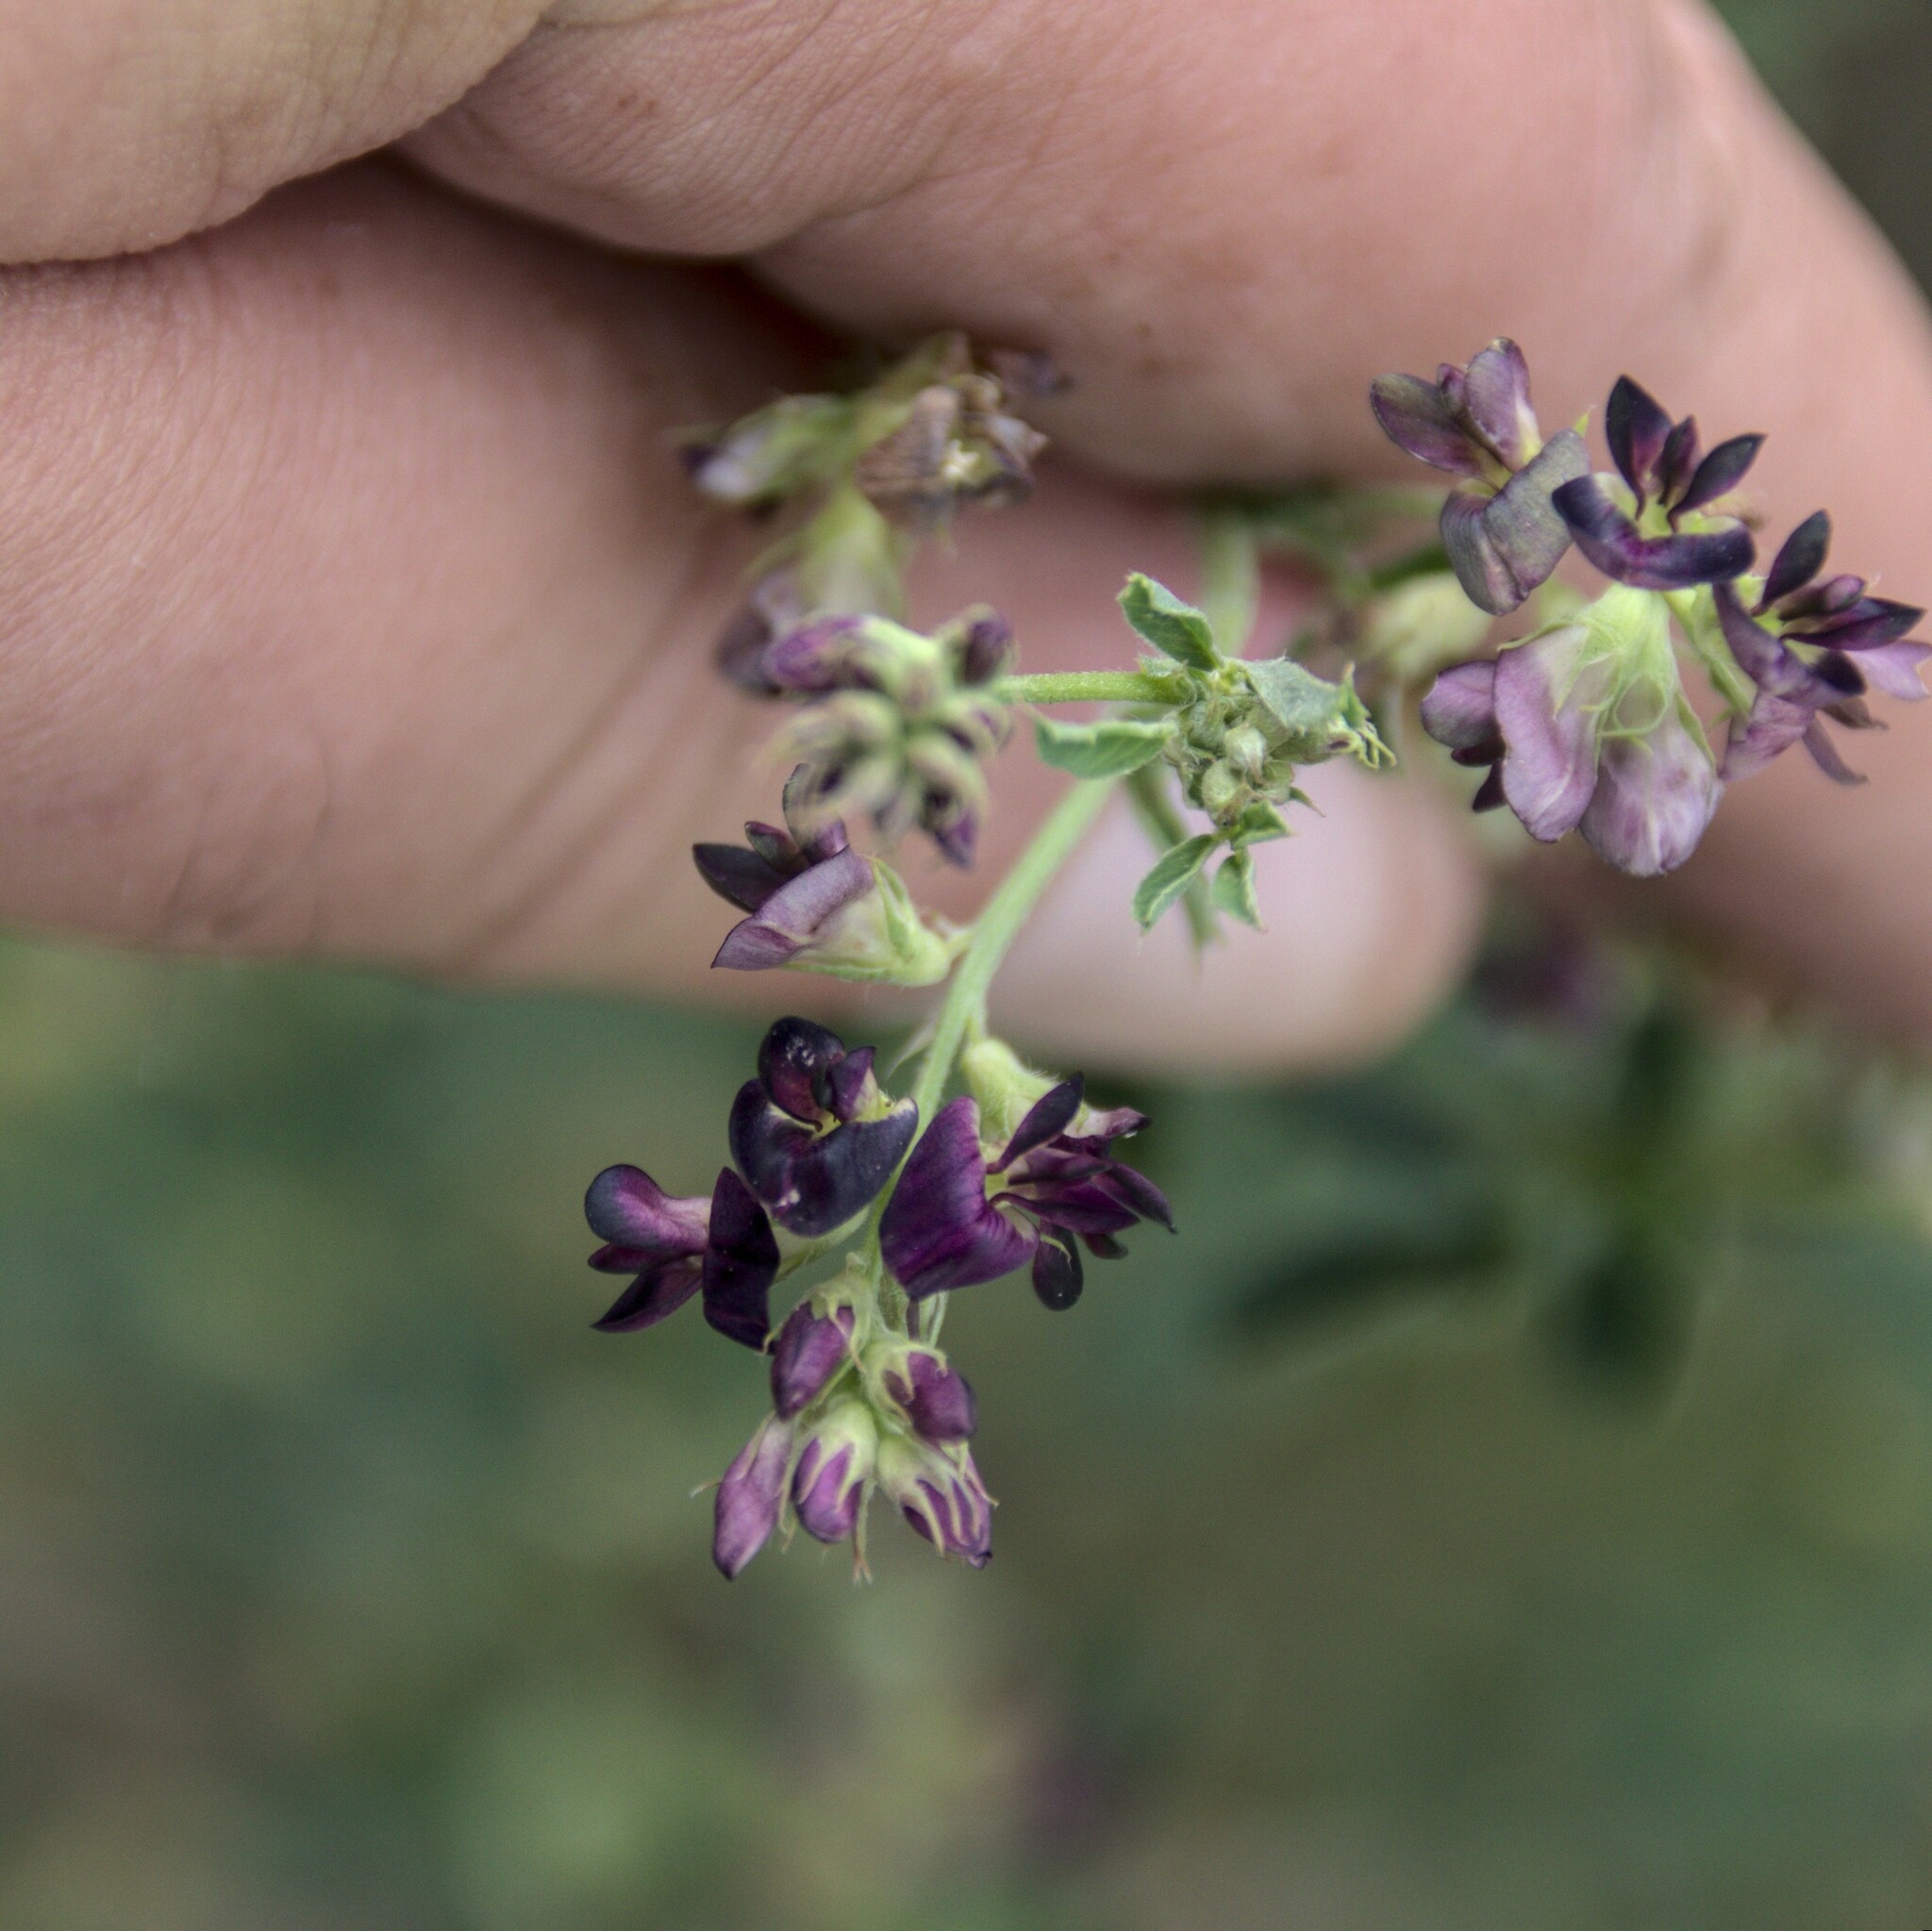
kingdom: Plantae
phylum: Tracheophyta
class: Magnoliopsida
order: Fabales
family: Fabaceae
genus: Medicago
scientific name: Medicago varia
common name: Sand lucerne
